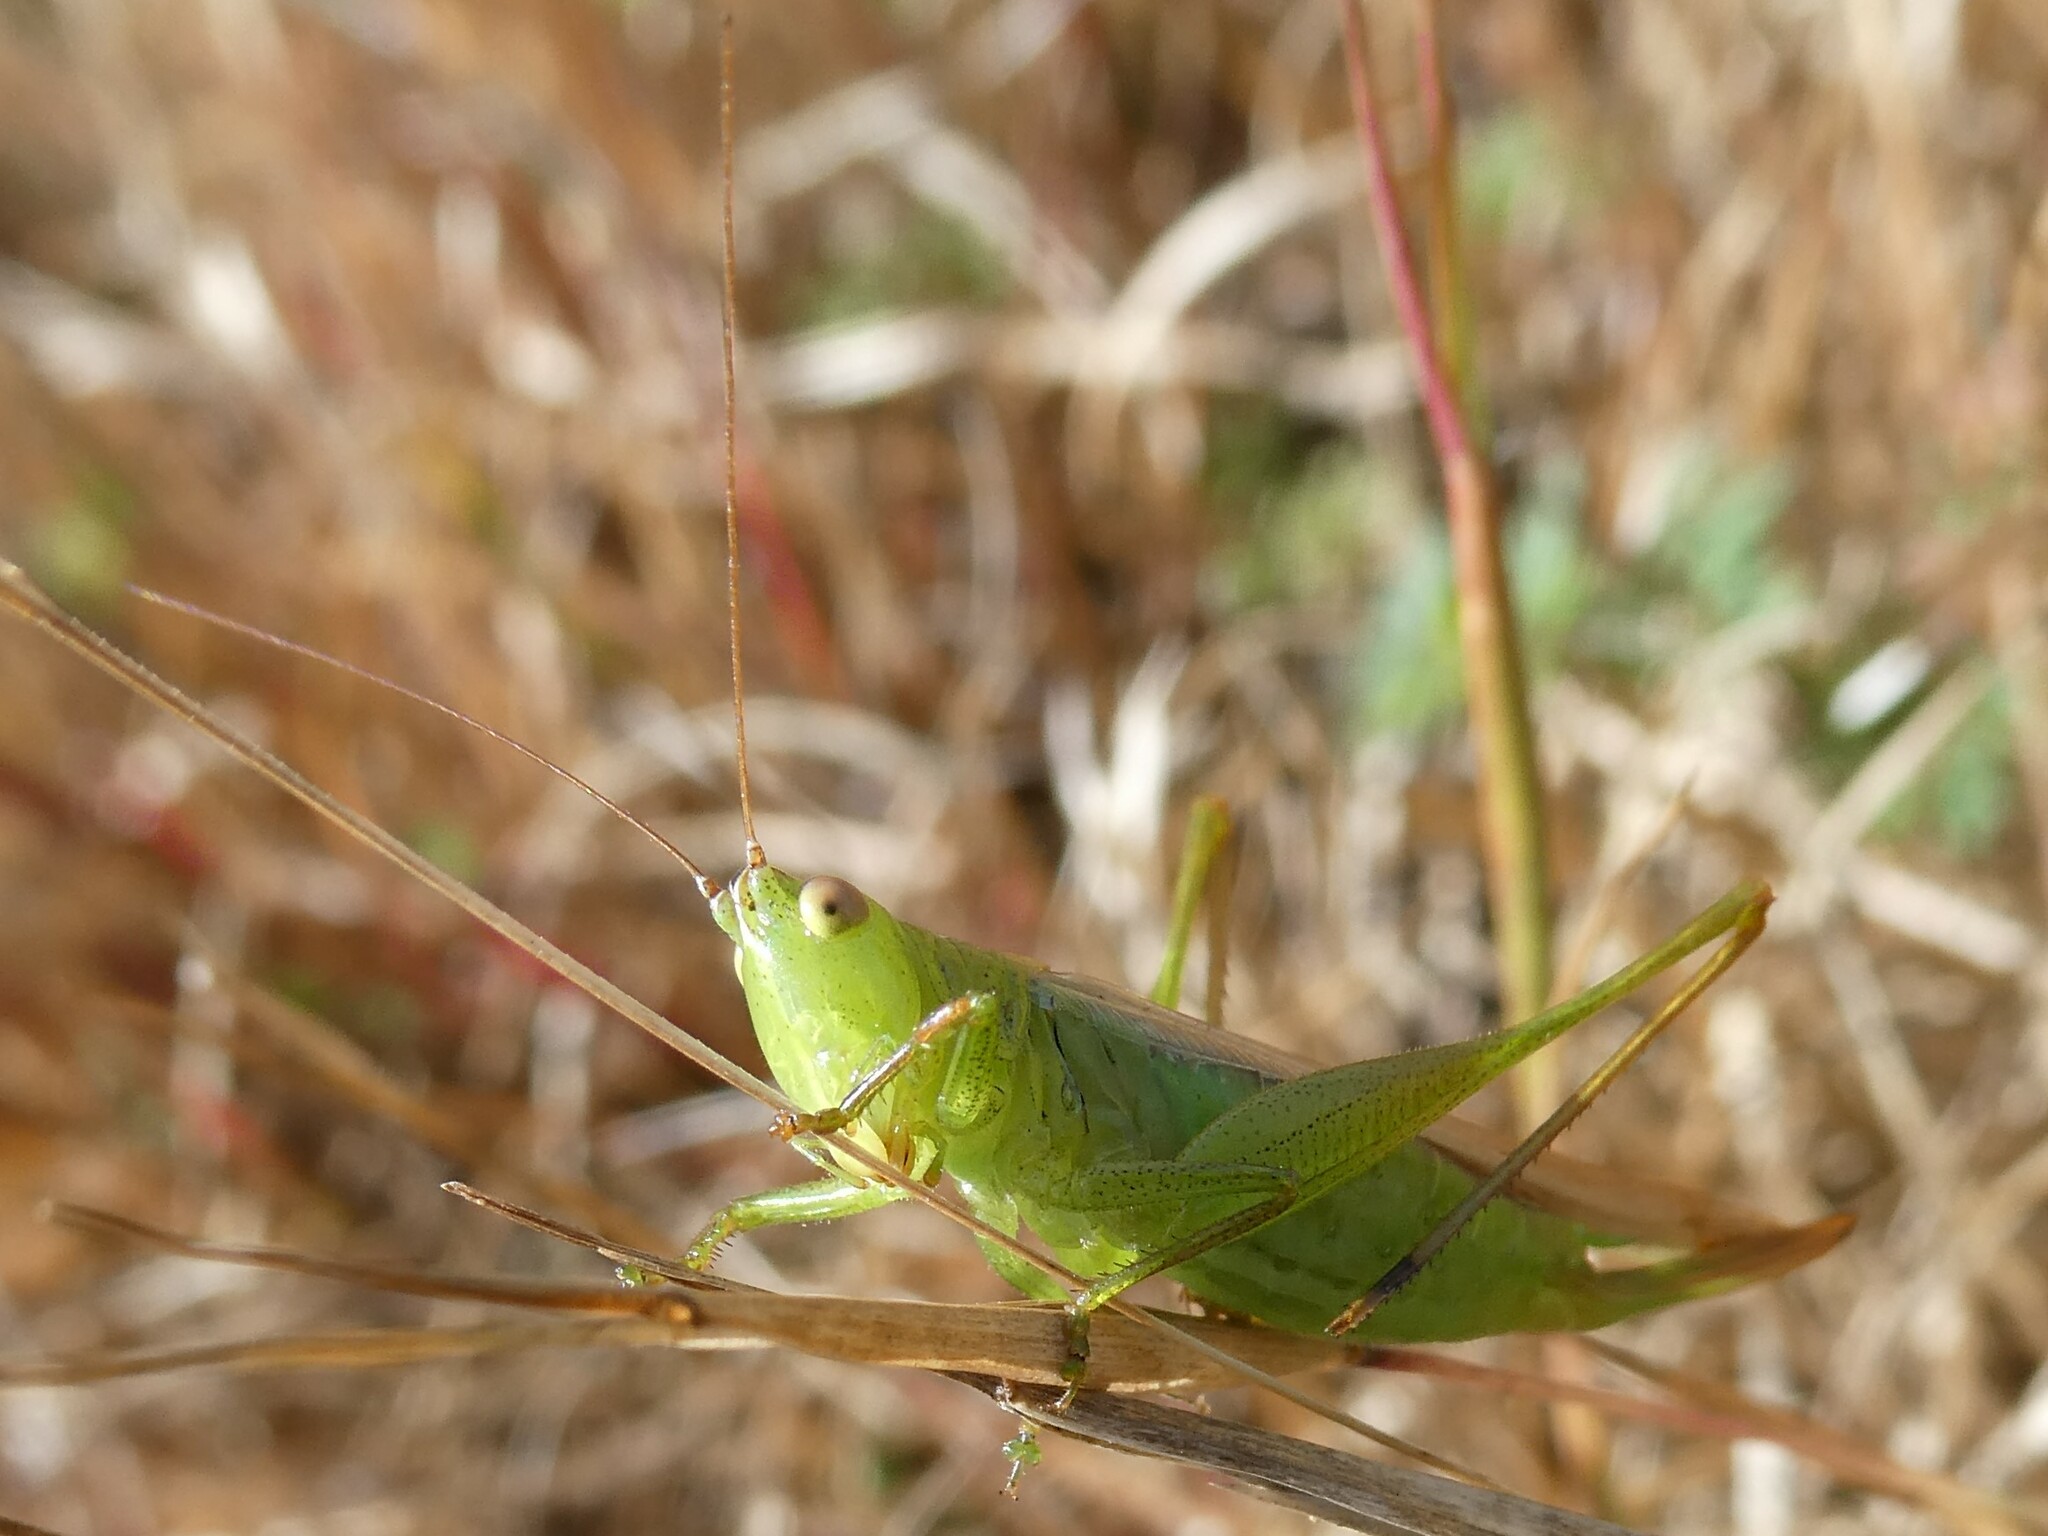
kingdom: Animalia
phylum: Arthropoda
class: Insecta
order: Orthoptera
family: Tettigoniidae
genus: Conocephalus
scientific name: Conocephalus fasciatus
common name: Slender meadow katydid
